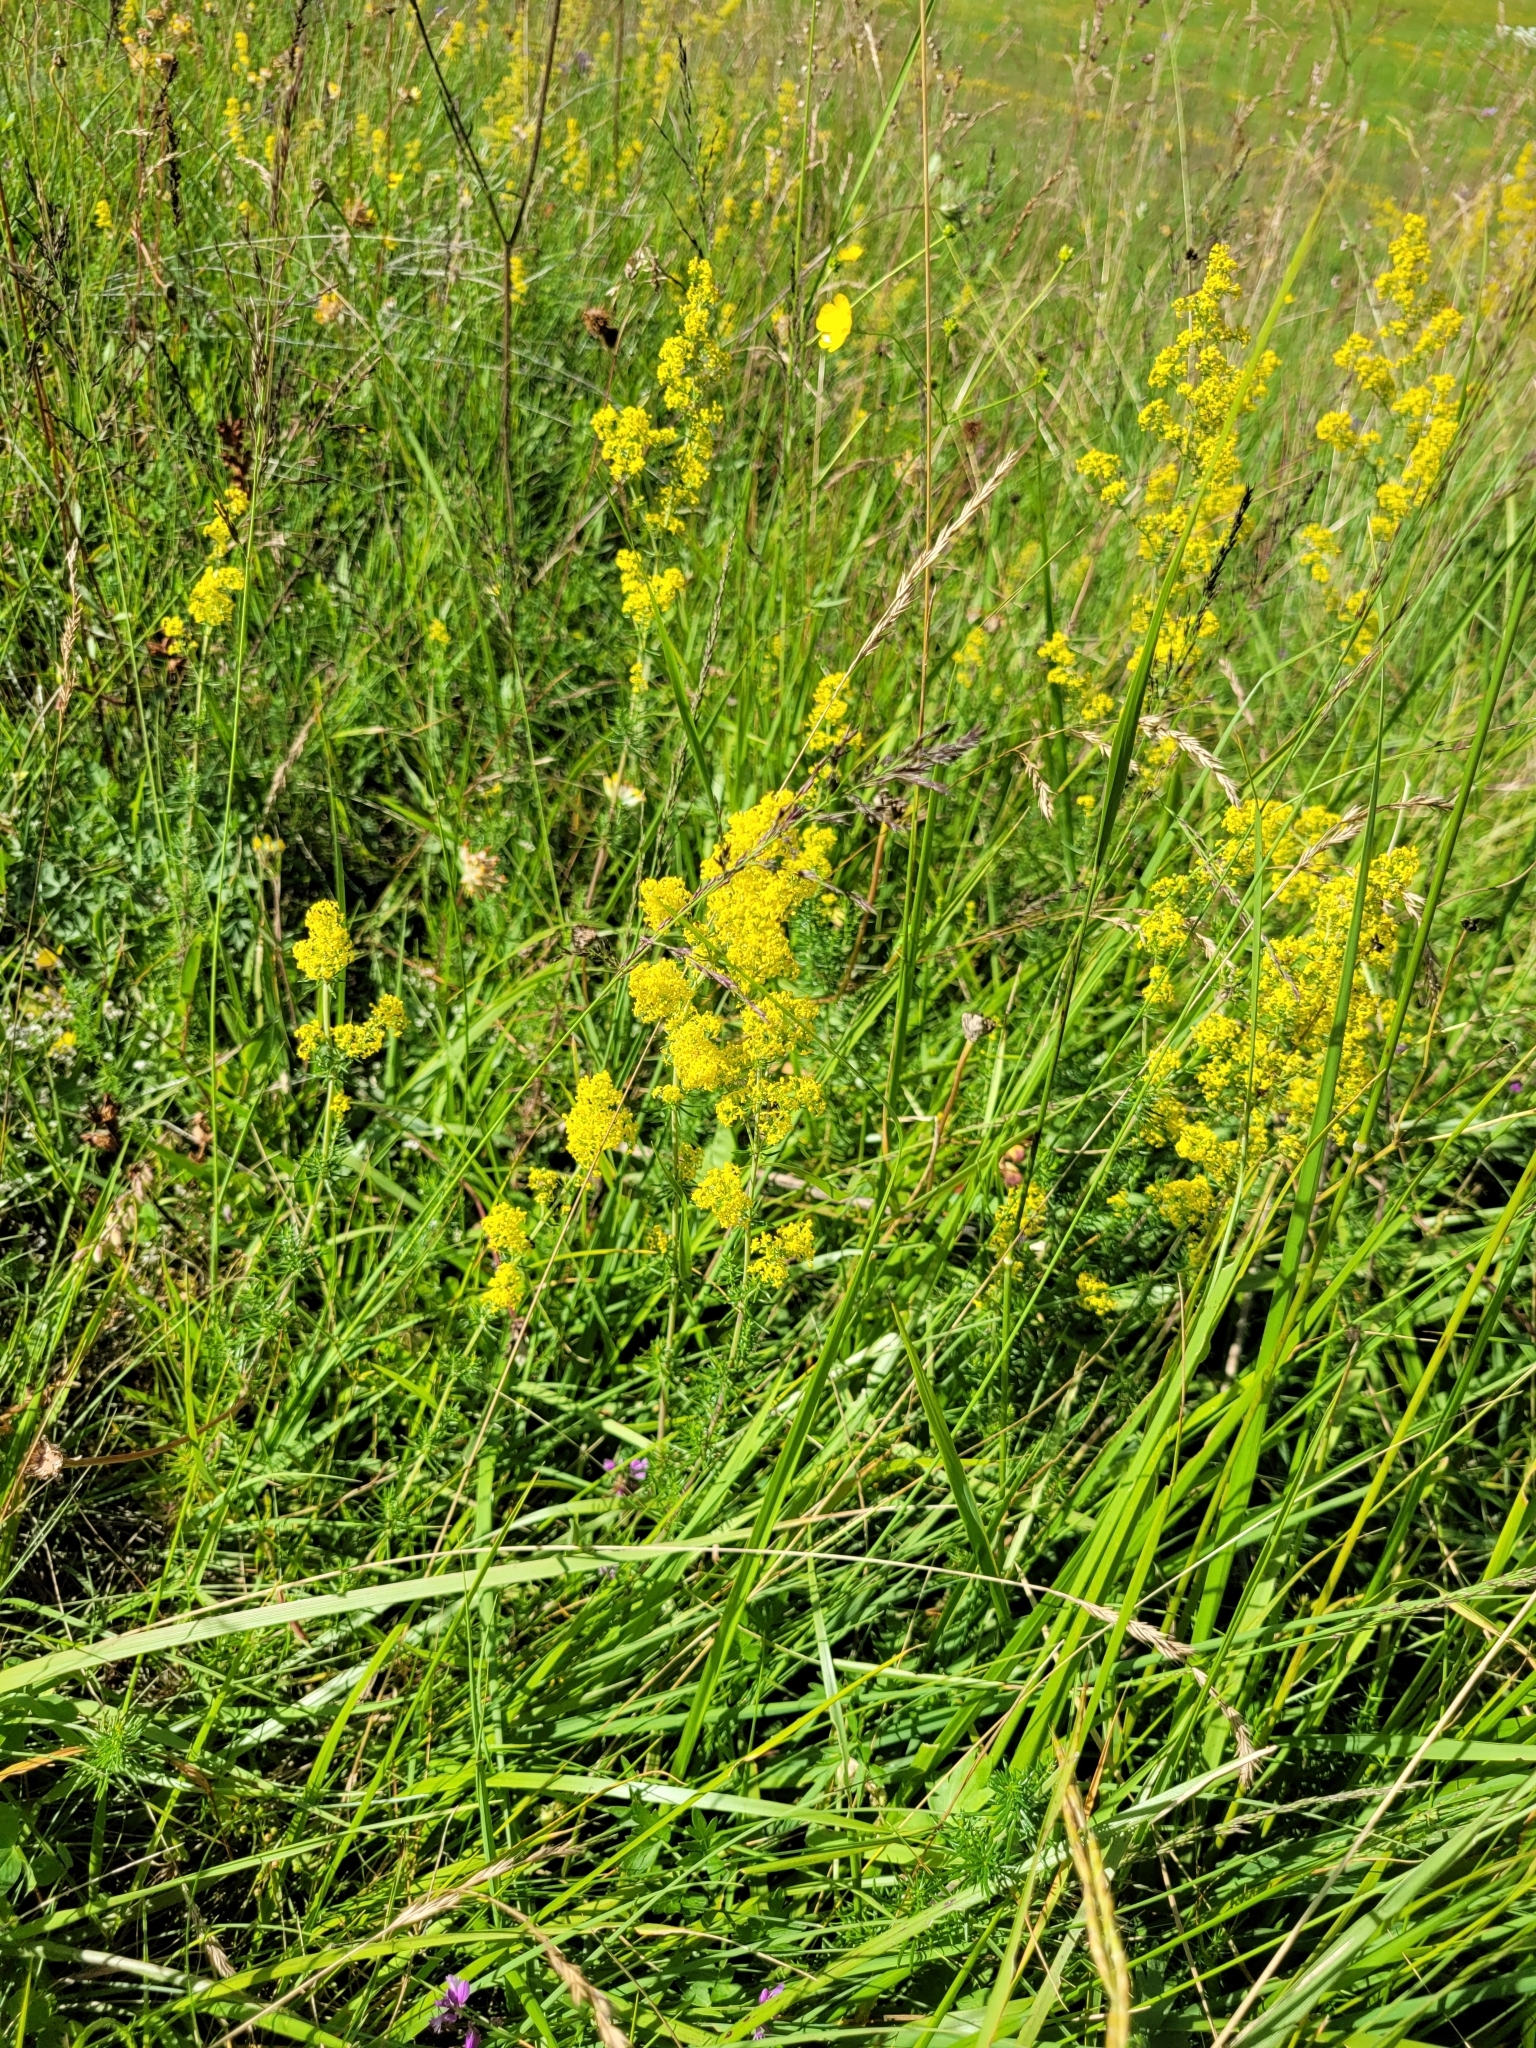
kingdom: Plantae
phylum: Tracheophyta
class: Magnoliopsida
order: Gentianales
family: Rubiaceae
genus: Galium
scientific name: Galium verum
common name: Lady's bedstraw
